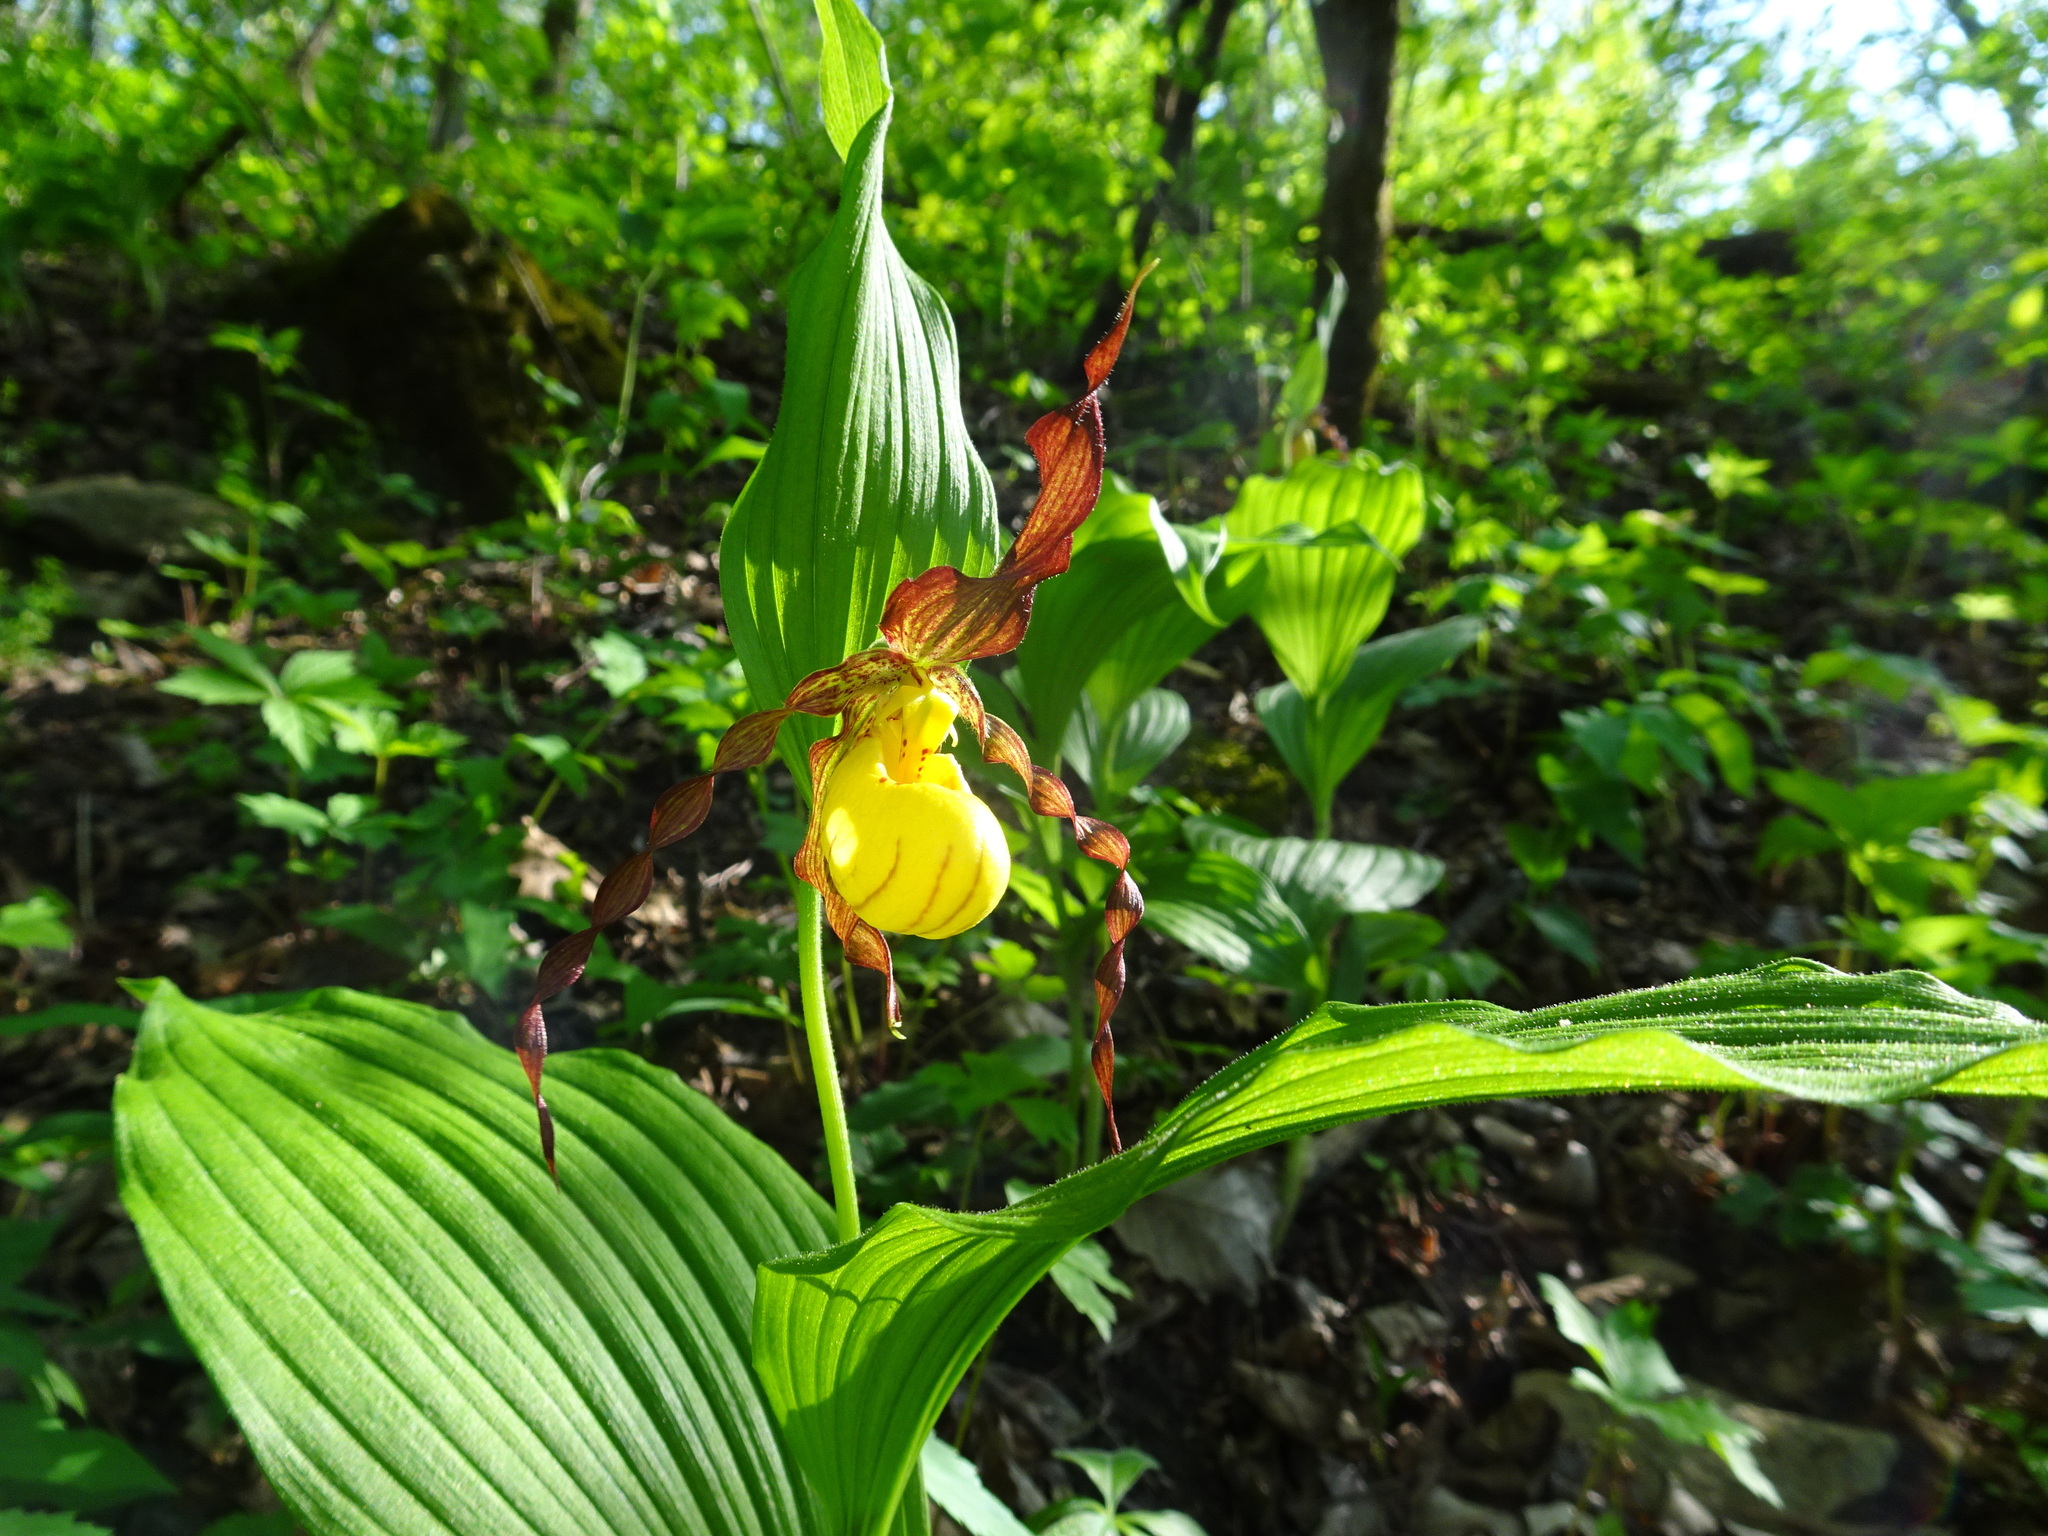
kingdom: Plantae
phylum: Tracheophyta
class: Liliopsida
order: Asparagales
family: Orchidaceae
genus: Cypripedium
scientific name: Cypripedium parviflorum
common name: American yellow lady's-slipper
